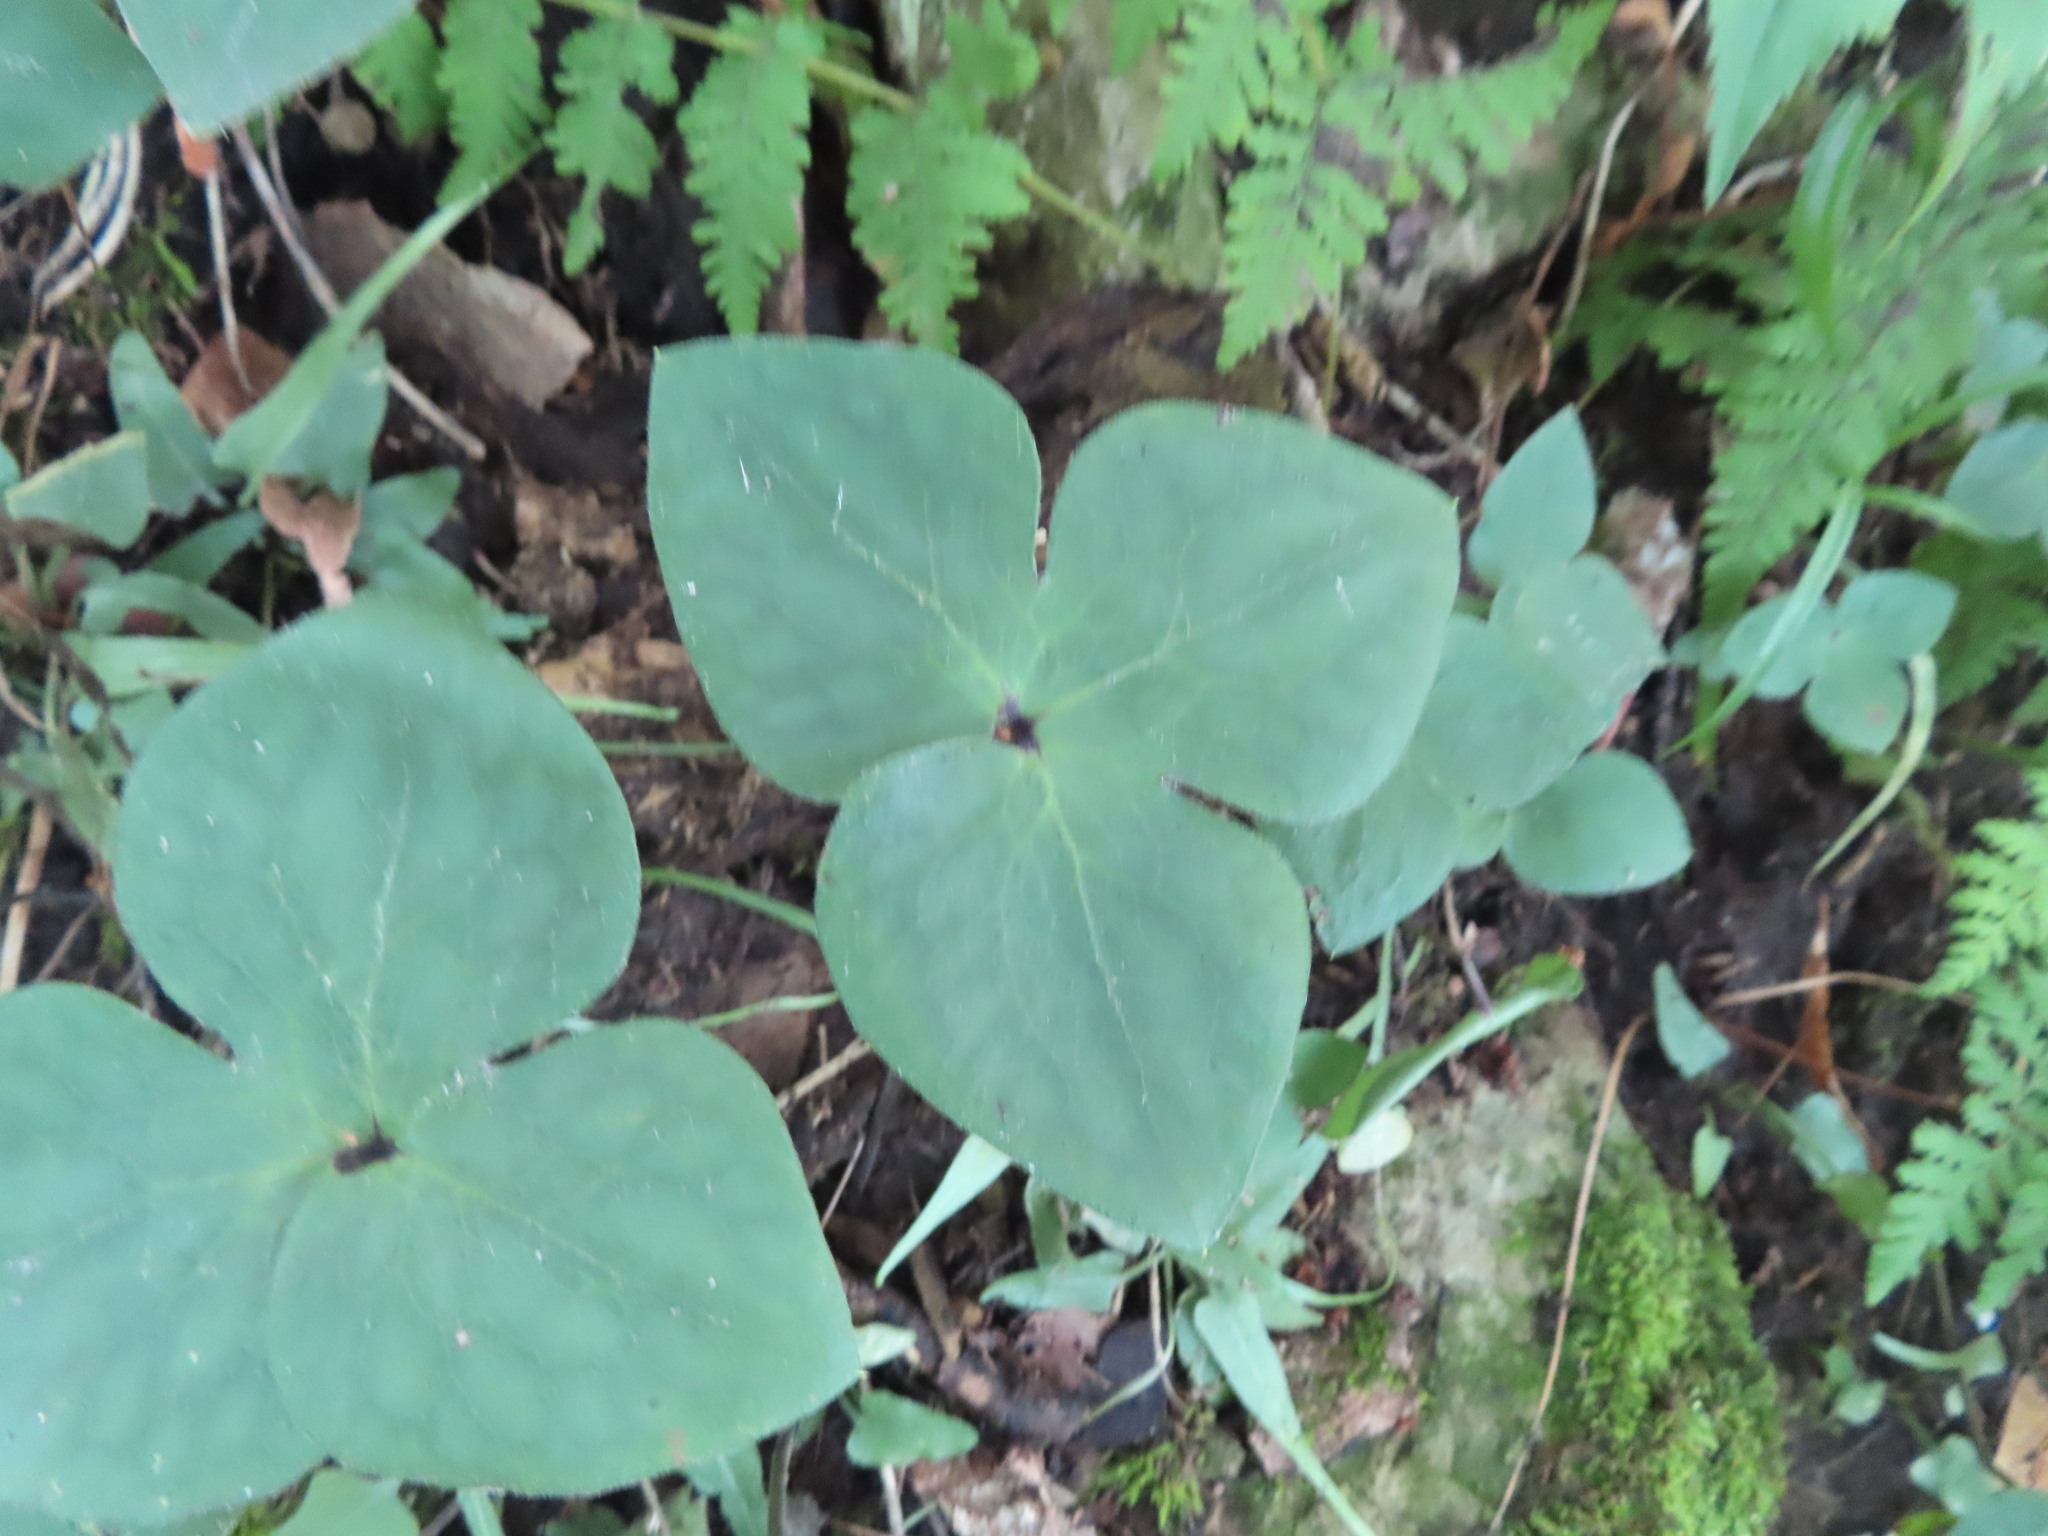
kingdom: Plantae
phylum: Tracheophyta
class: Magnoliopsida
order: Ranunculales
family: Ranunculaceae
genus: Hepatica
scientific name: Hepatica acutiloba
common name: Sharp-lobed hepatica
